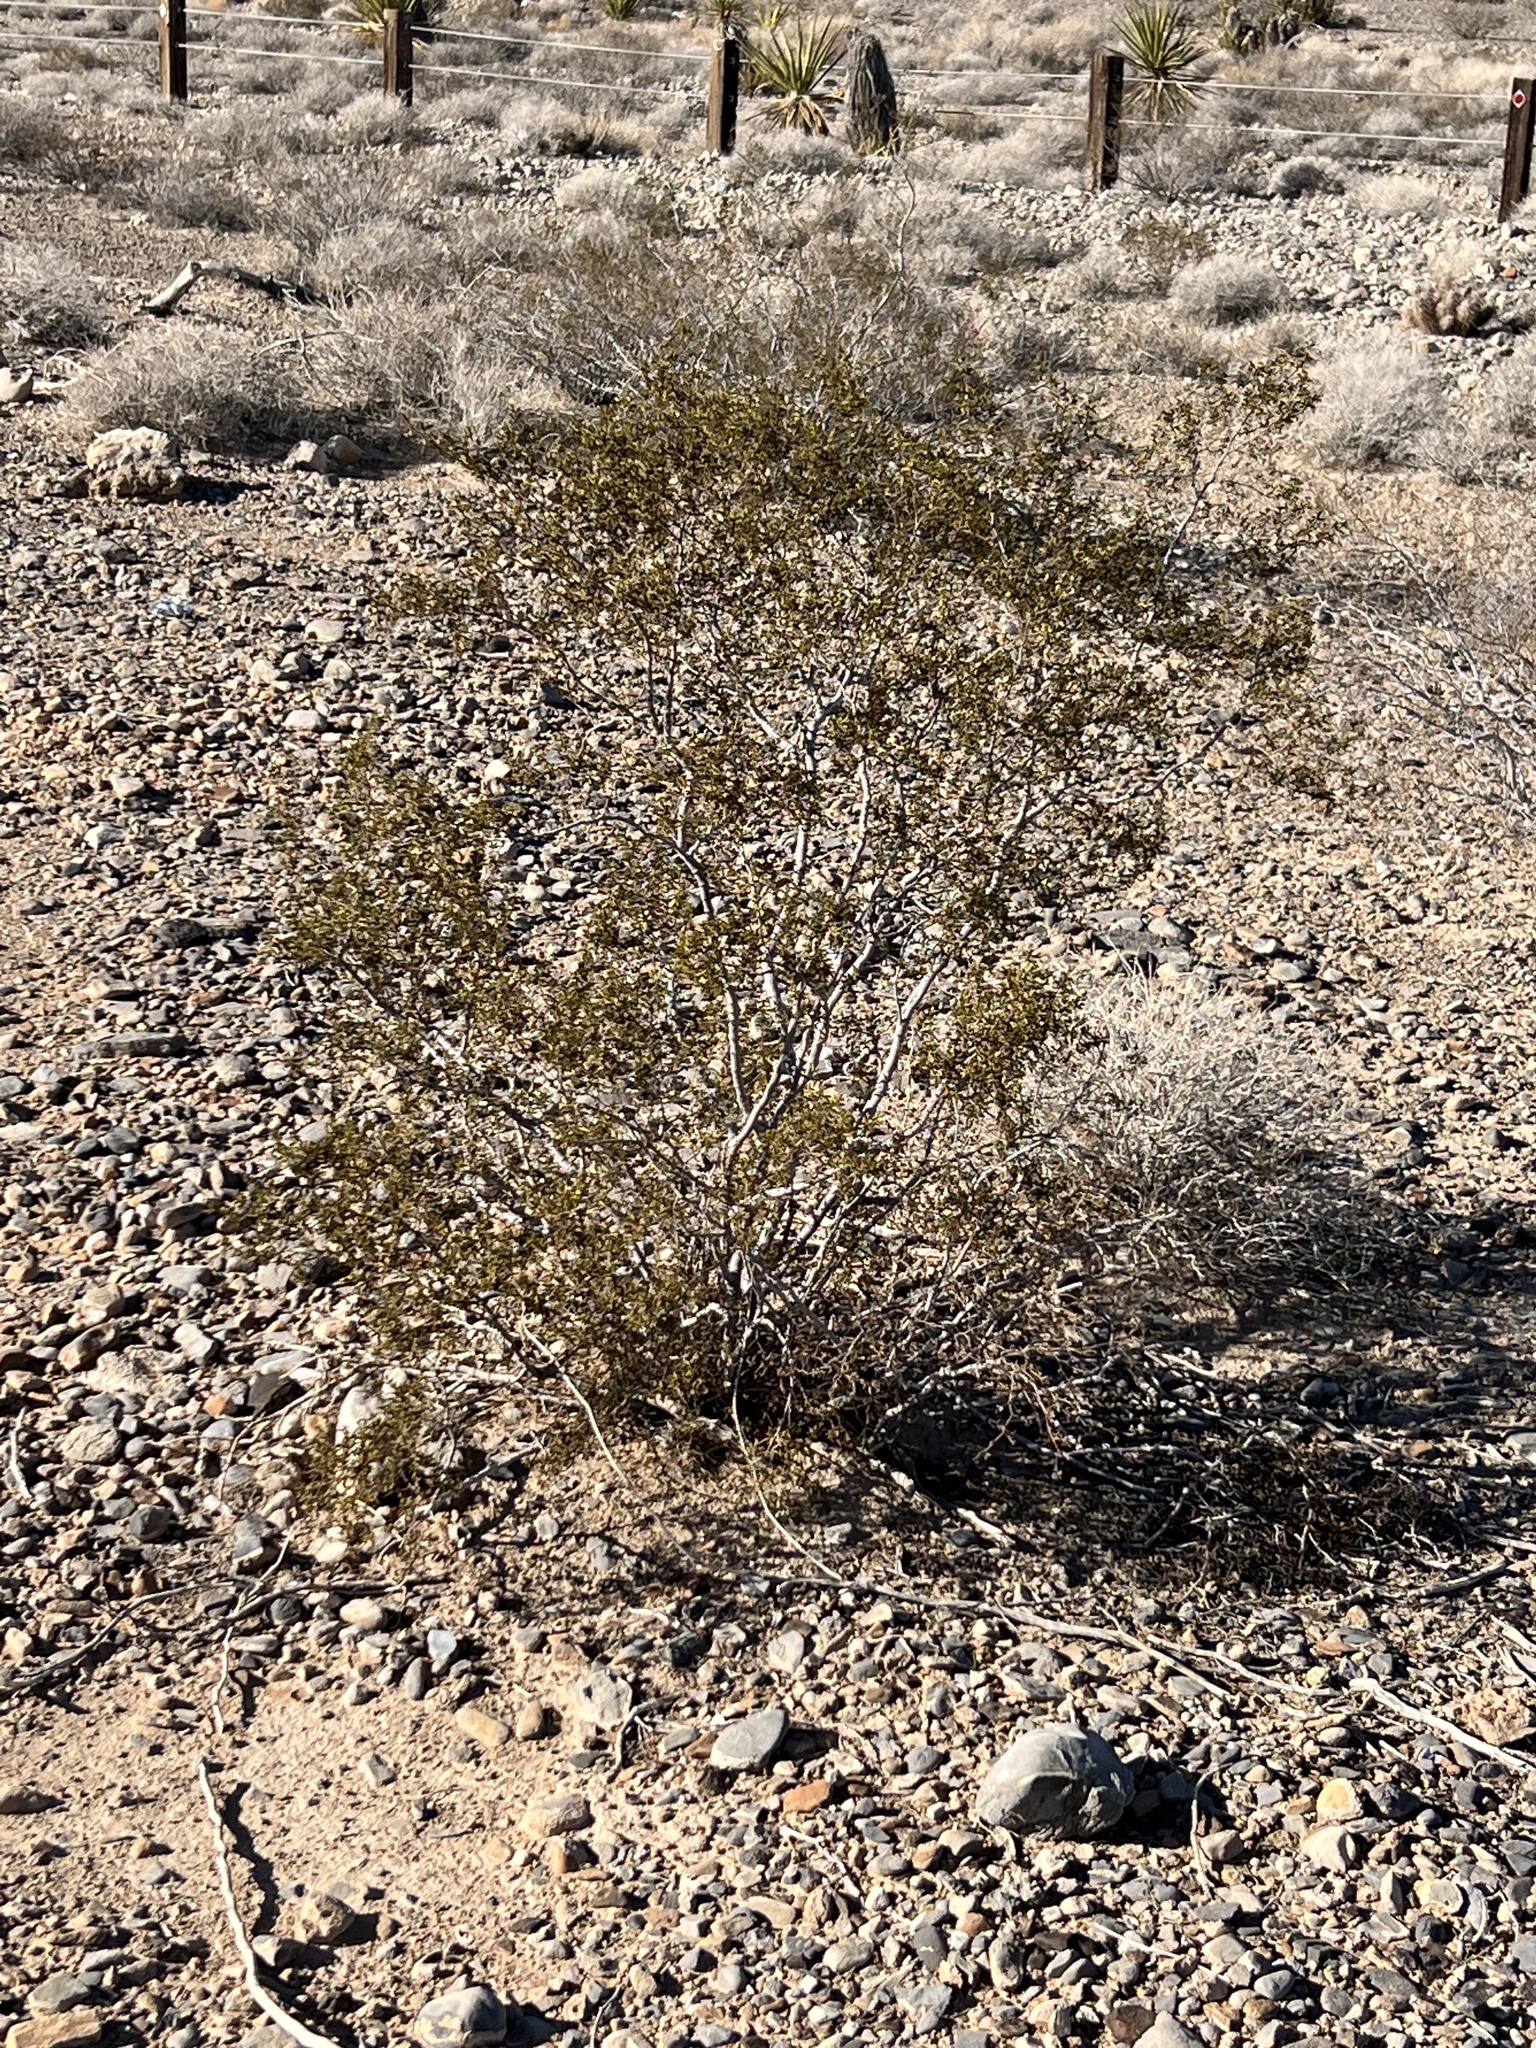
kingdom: Plantae
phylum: Tracheophyta
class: Magnoliopsida
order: Zygophyllales
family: Zygophyllaceae
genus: Larrea
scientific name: Larrea tridentata
